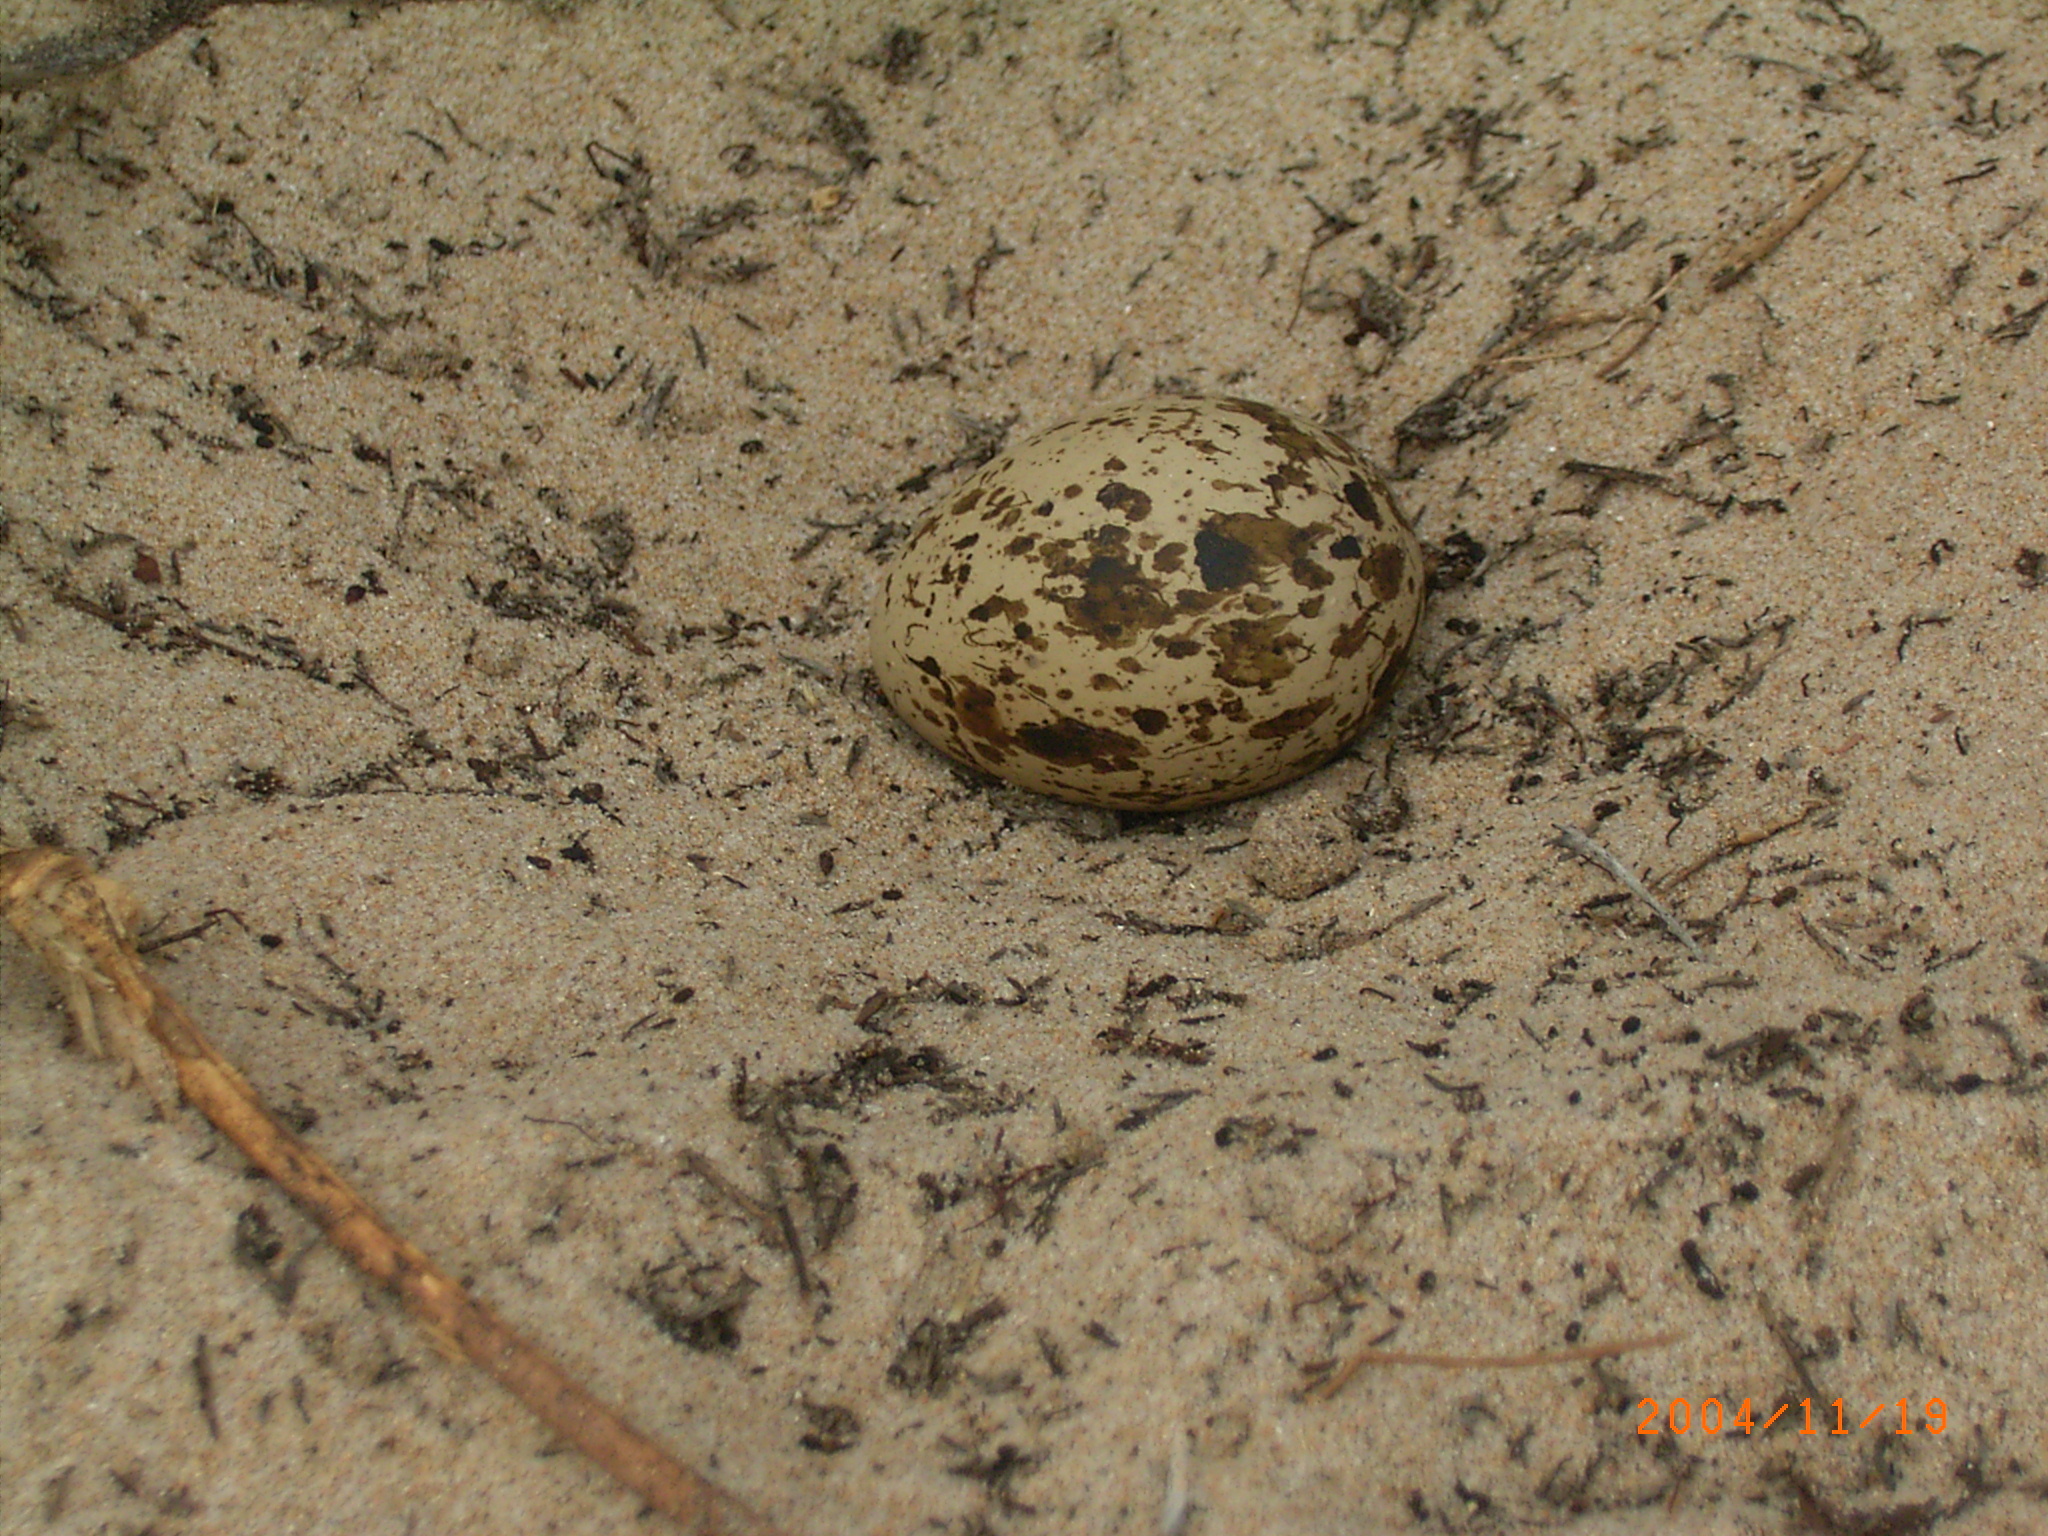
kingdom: Animalia
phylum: Chordata
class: Aves
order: Charadriiformes
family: Burhinidae
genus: Burhinus
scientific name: Burhinus vermiculatus
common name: Water thick-knee
